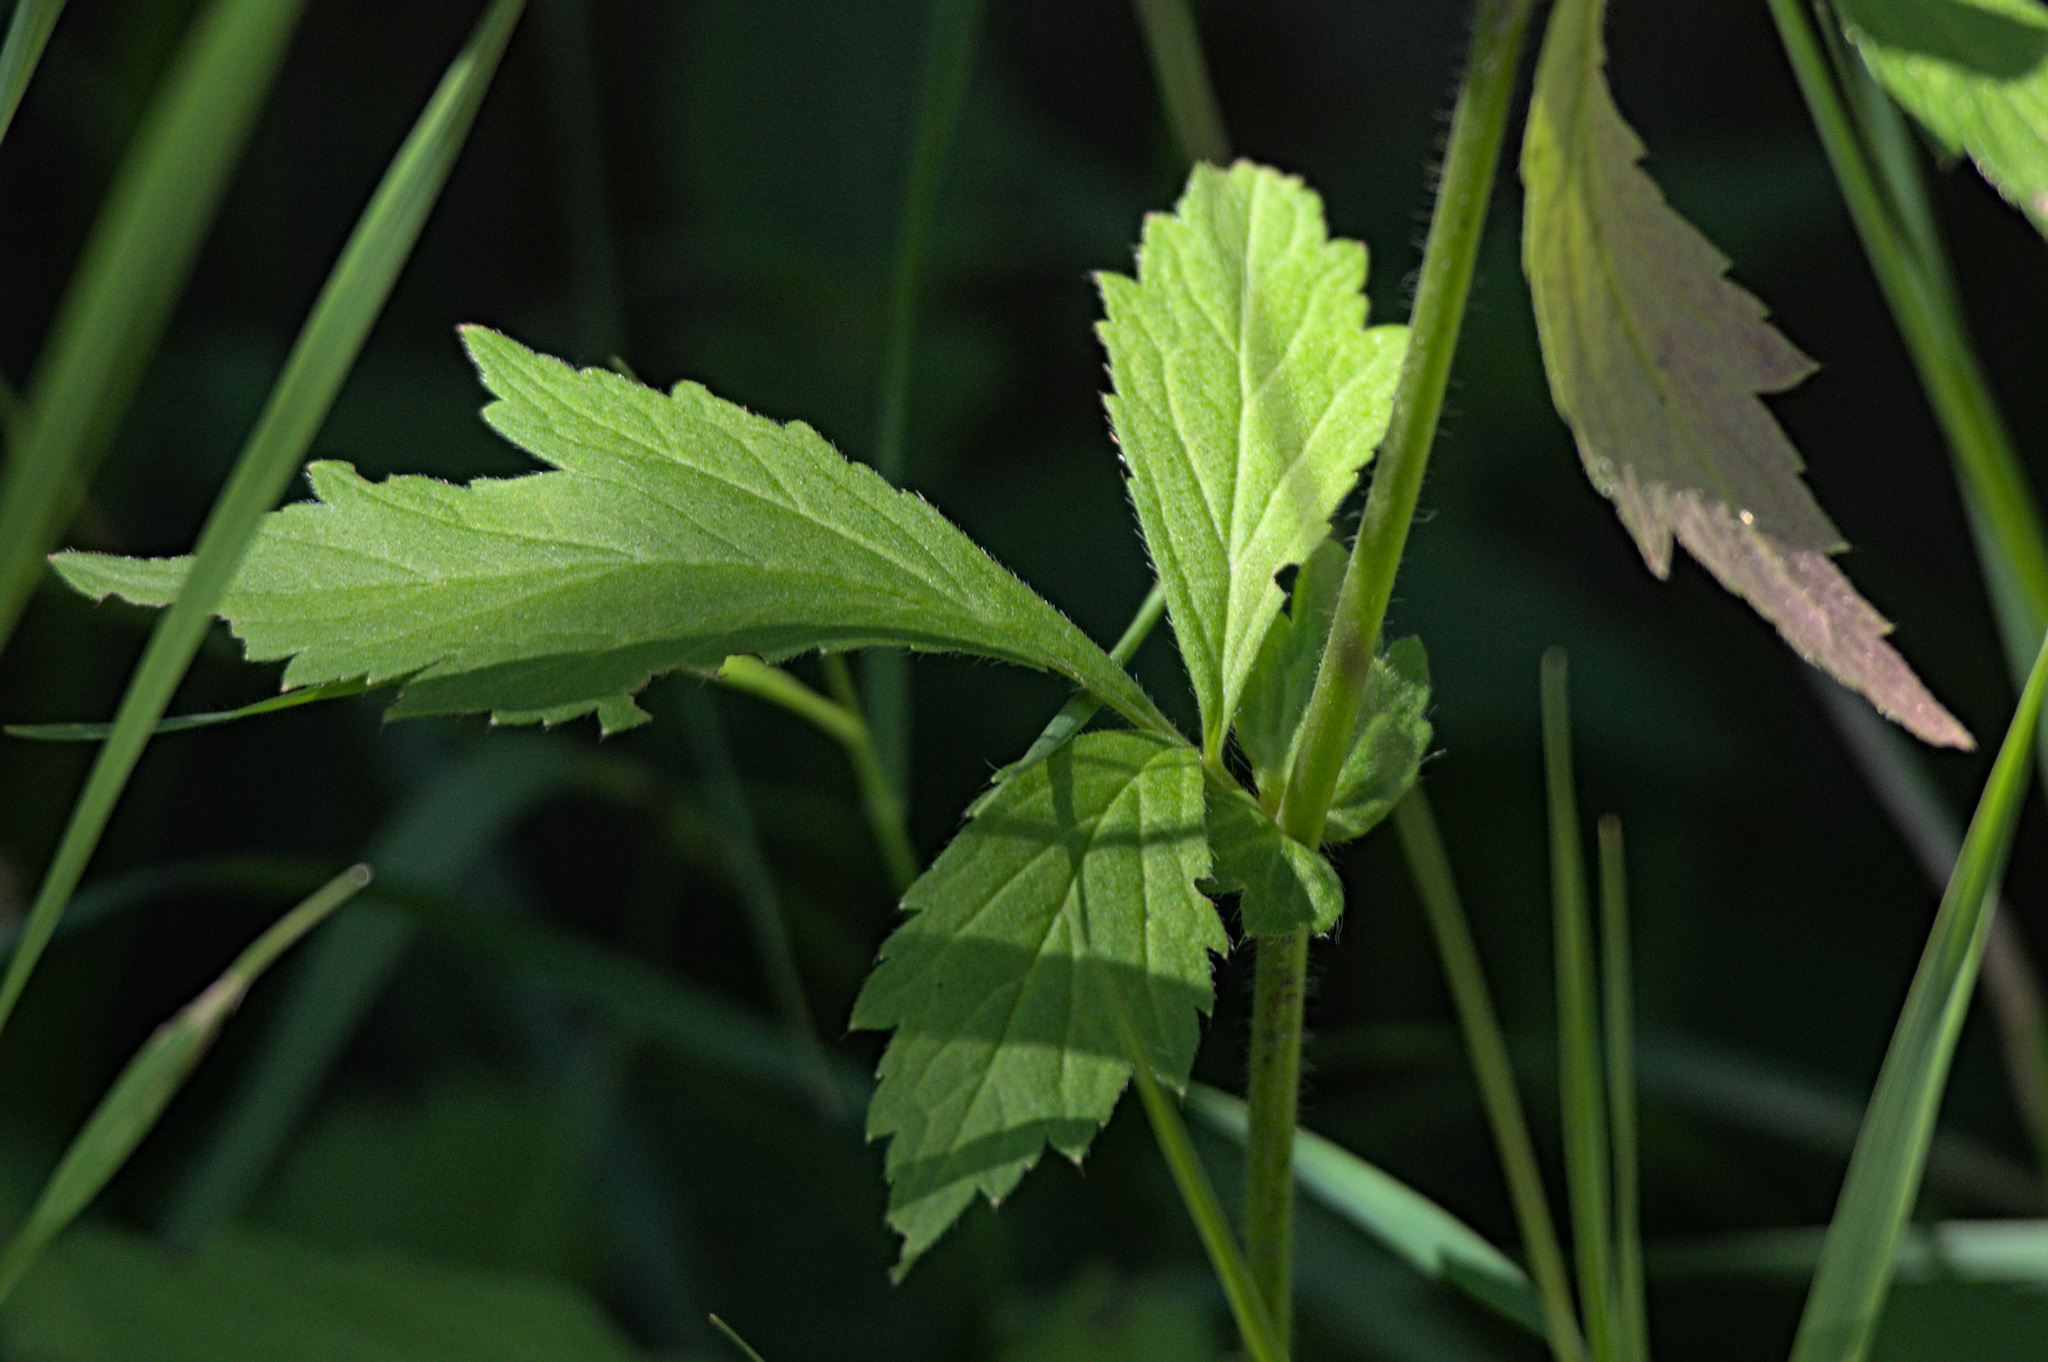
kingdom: Plantae
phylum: Tracheophyta
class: Magnoliopsida
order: Rosales
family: Rosaceae
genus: Geum
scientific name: Geum aleppicum
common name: Yellow avens
